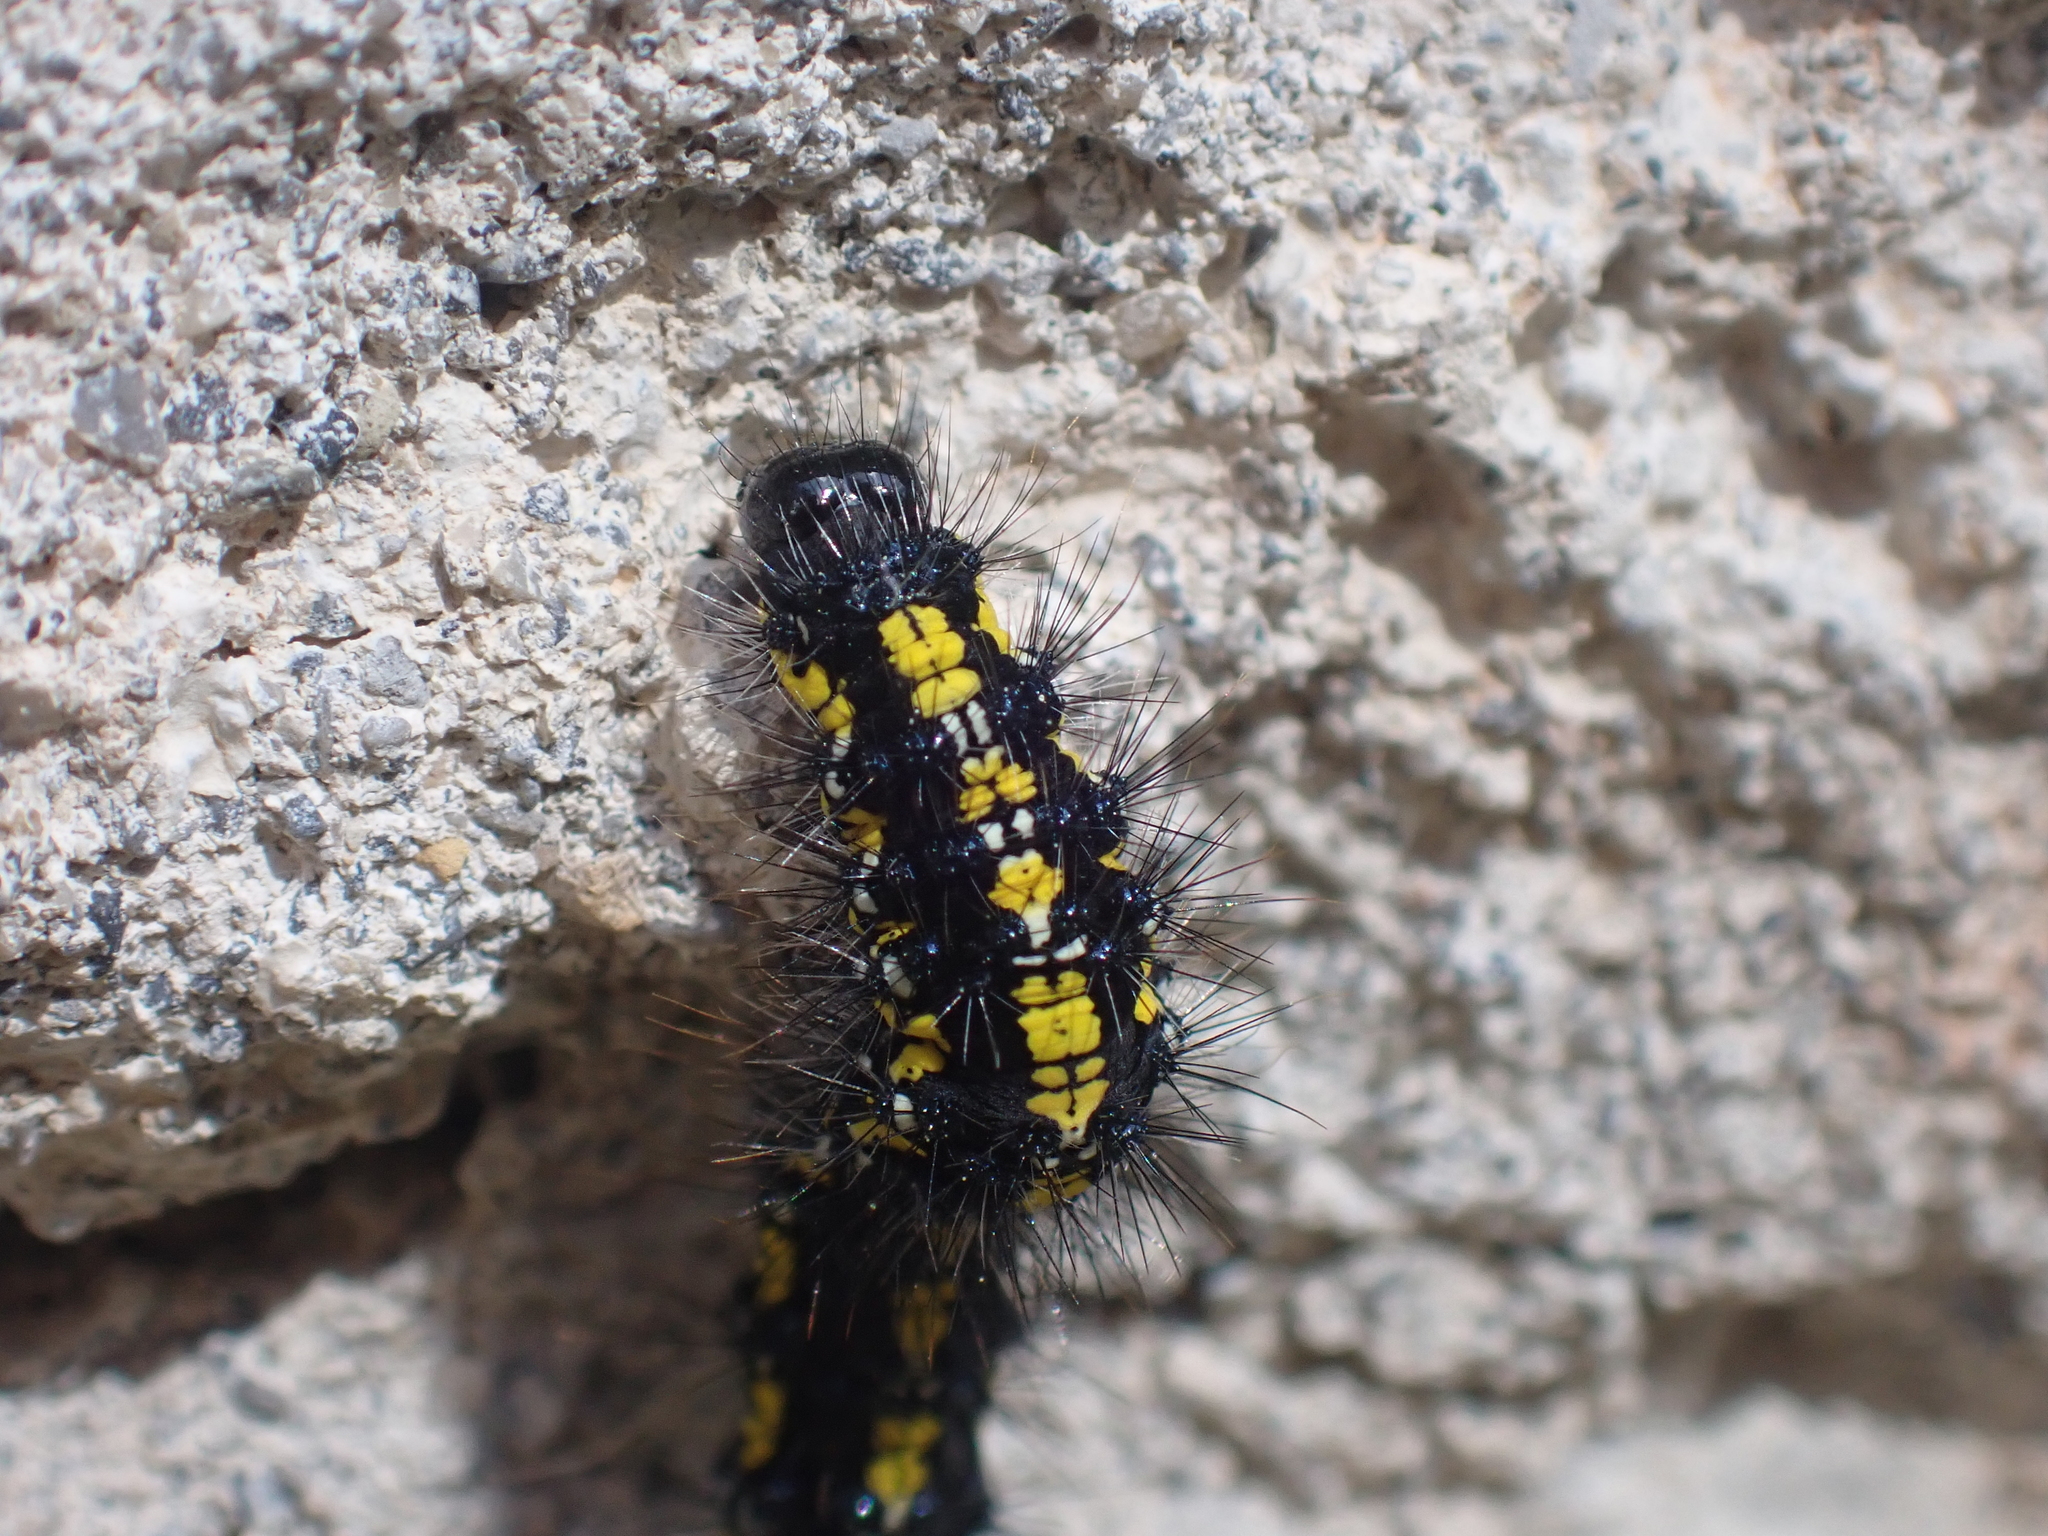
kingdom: Animalia
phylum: Arthropoda
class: Insecta
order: Lepidoptera
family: Erebidae
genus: Callimorpha
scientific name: Callimorpha dominula
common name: Scarlet tiger
